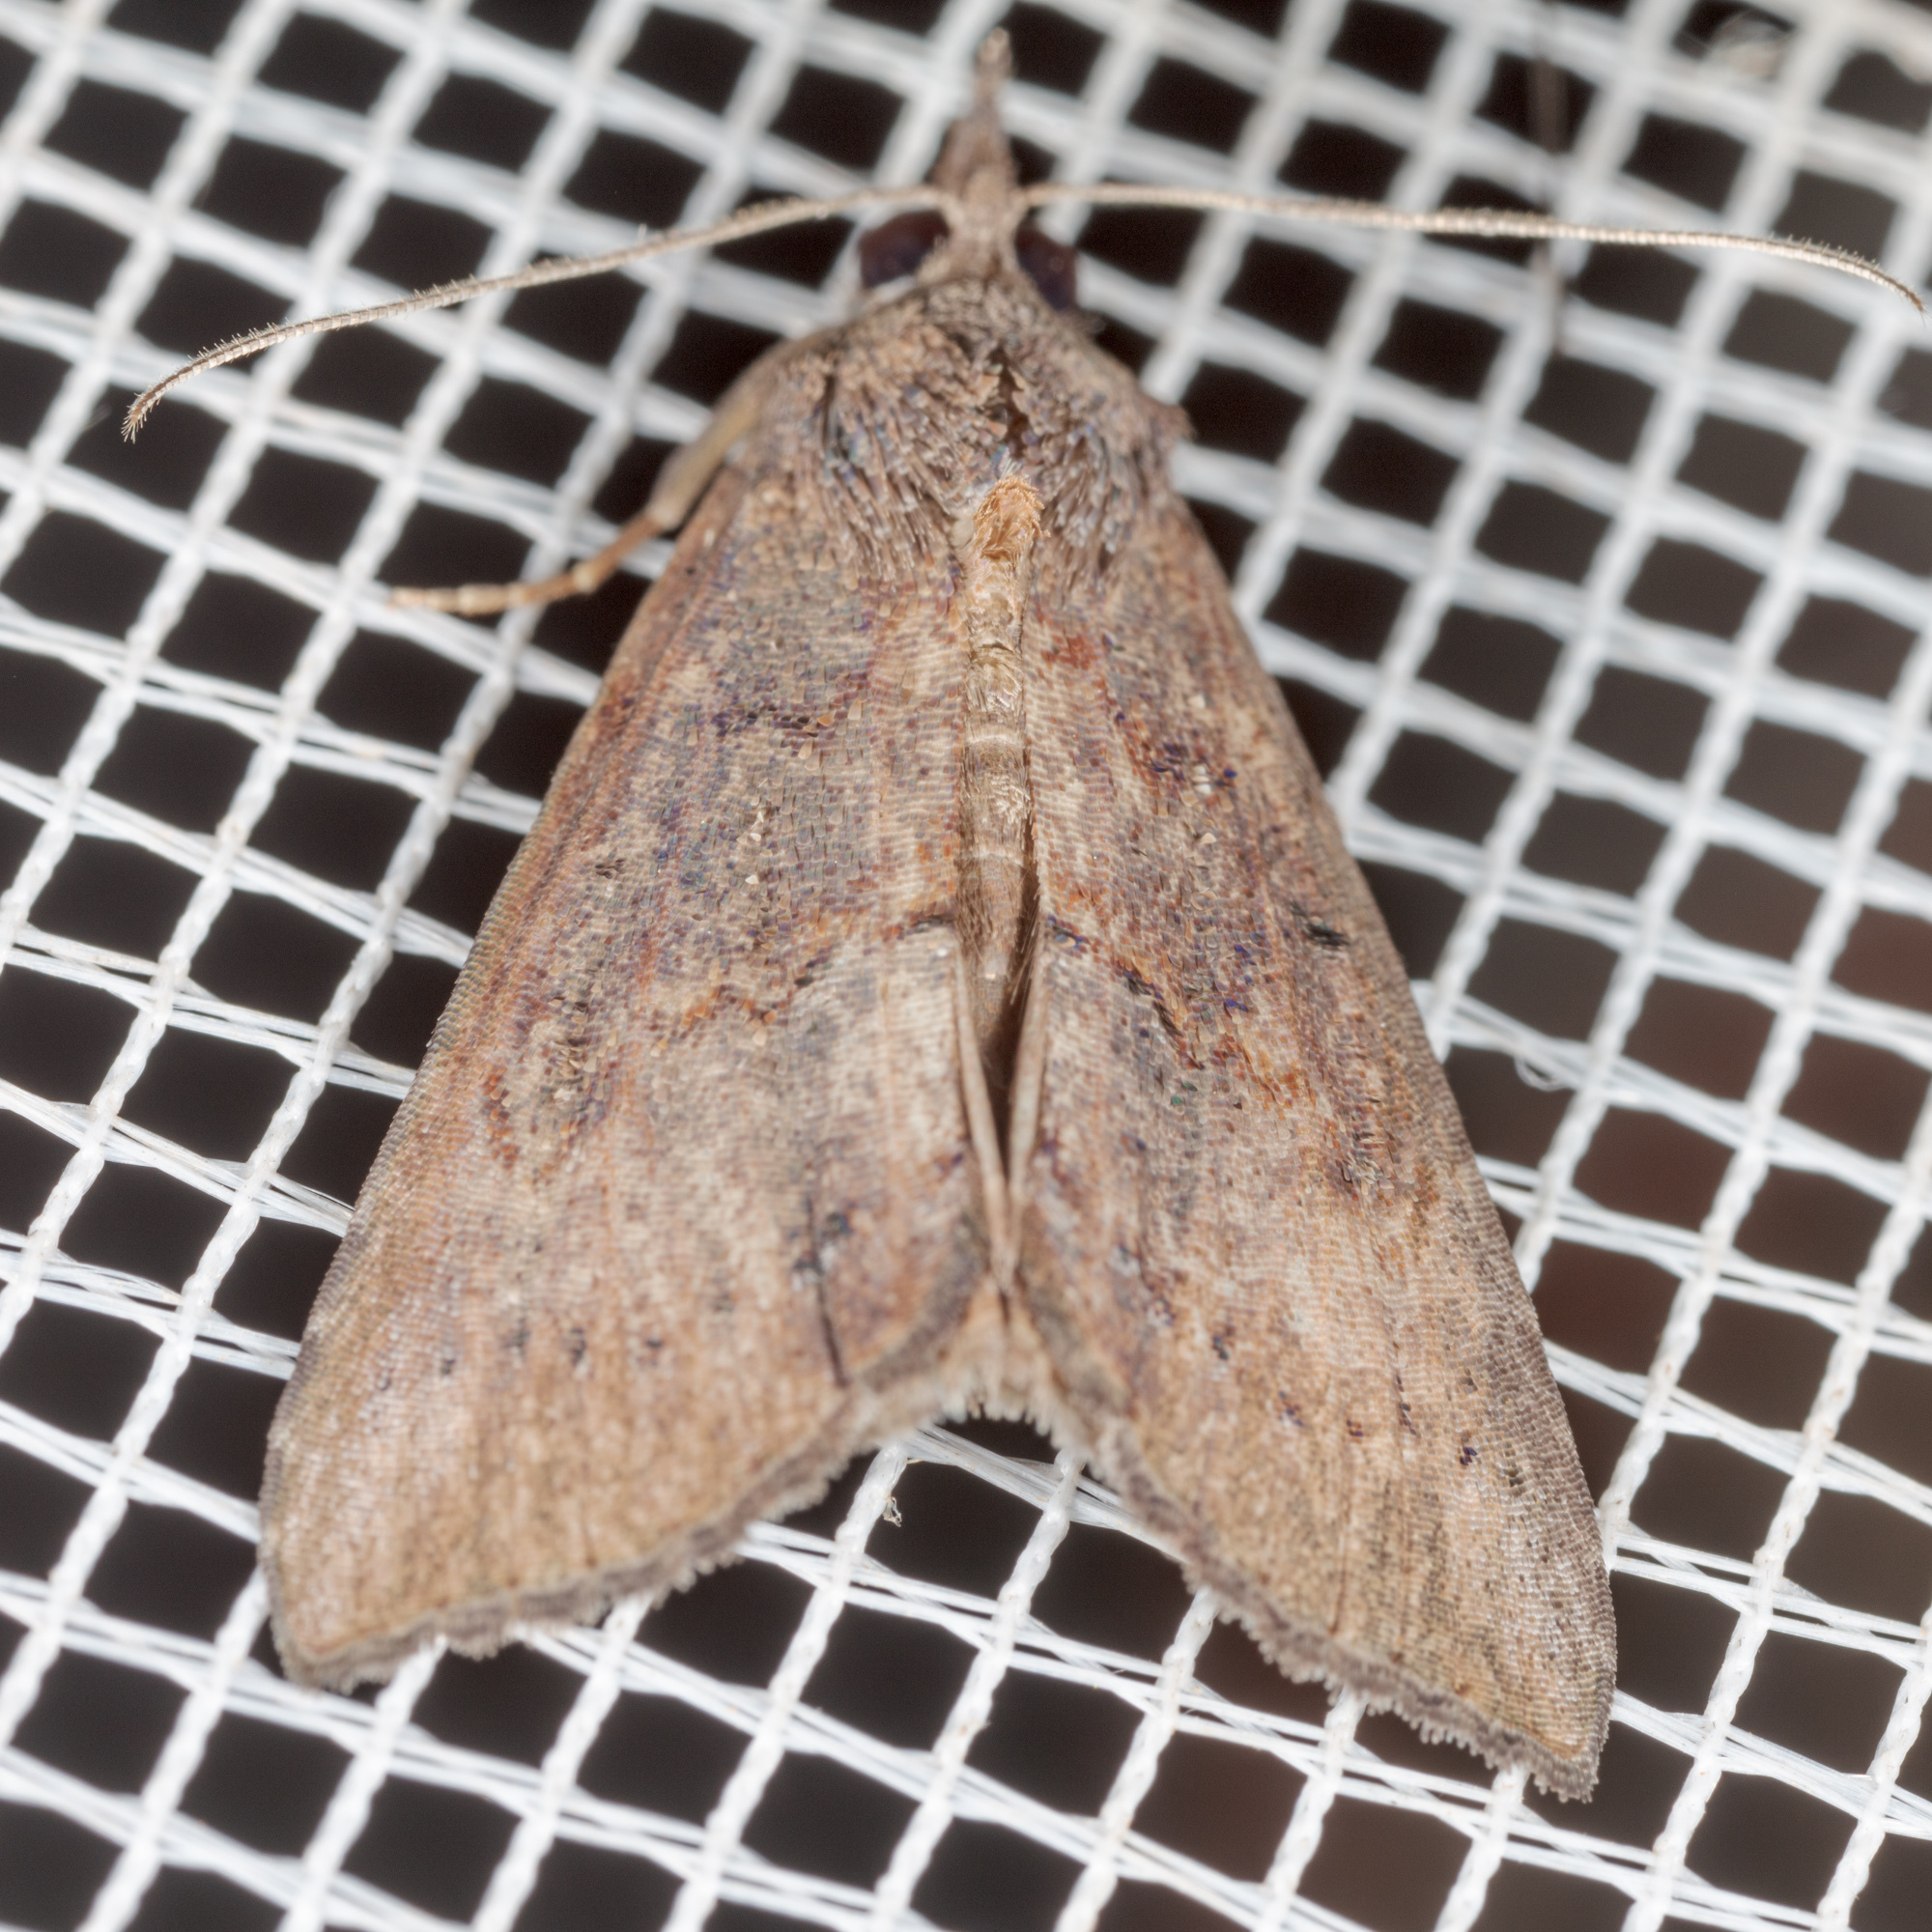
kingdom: Animalia
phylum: Arthropoda
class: Insecta
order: Lepidoptera
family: Erebidae
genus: Hypena
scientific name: Hypena scabra
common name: Green cloverworm
